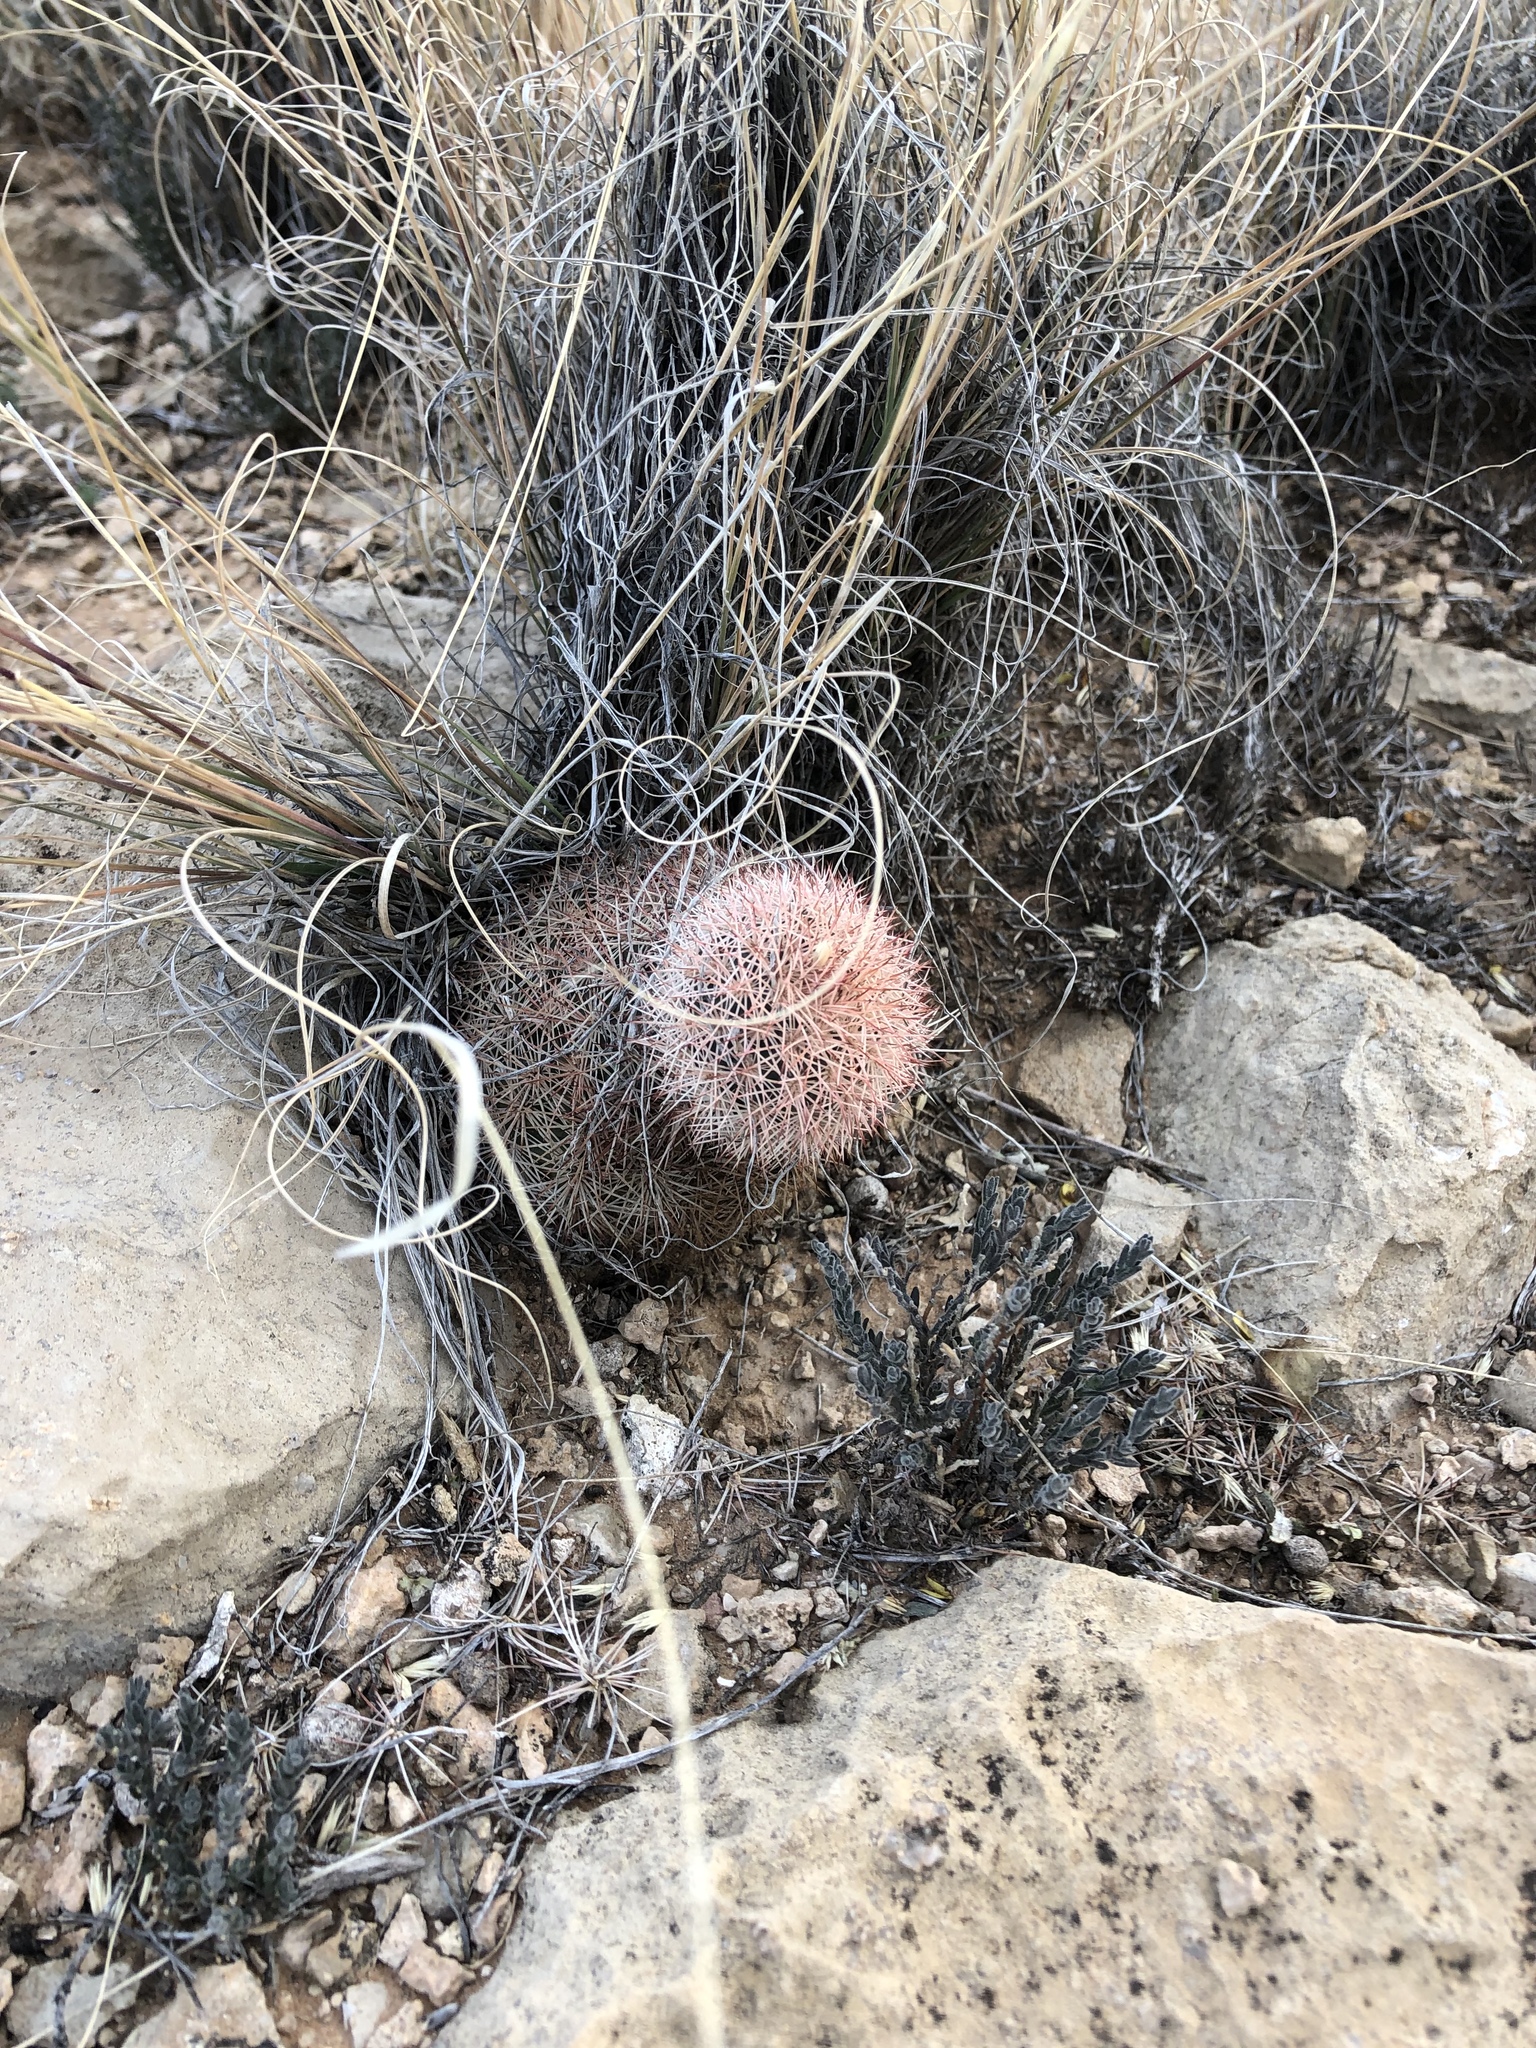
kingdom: Plantae
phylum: Tracheophyta
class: Magnoliopsida
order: Caryophyllales
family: Cactaceae
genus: Echinocereus
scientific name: Echinocereus dasyacanthus
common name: Spiny hedgehog cactus
